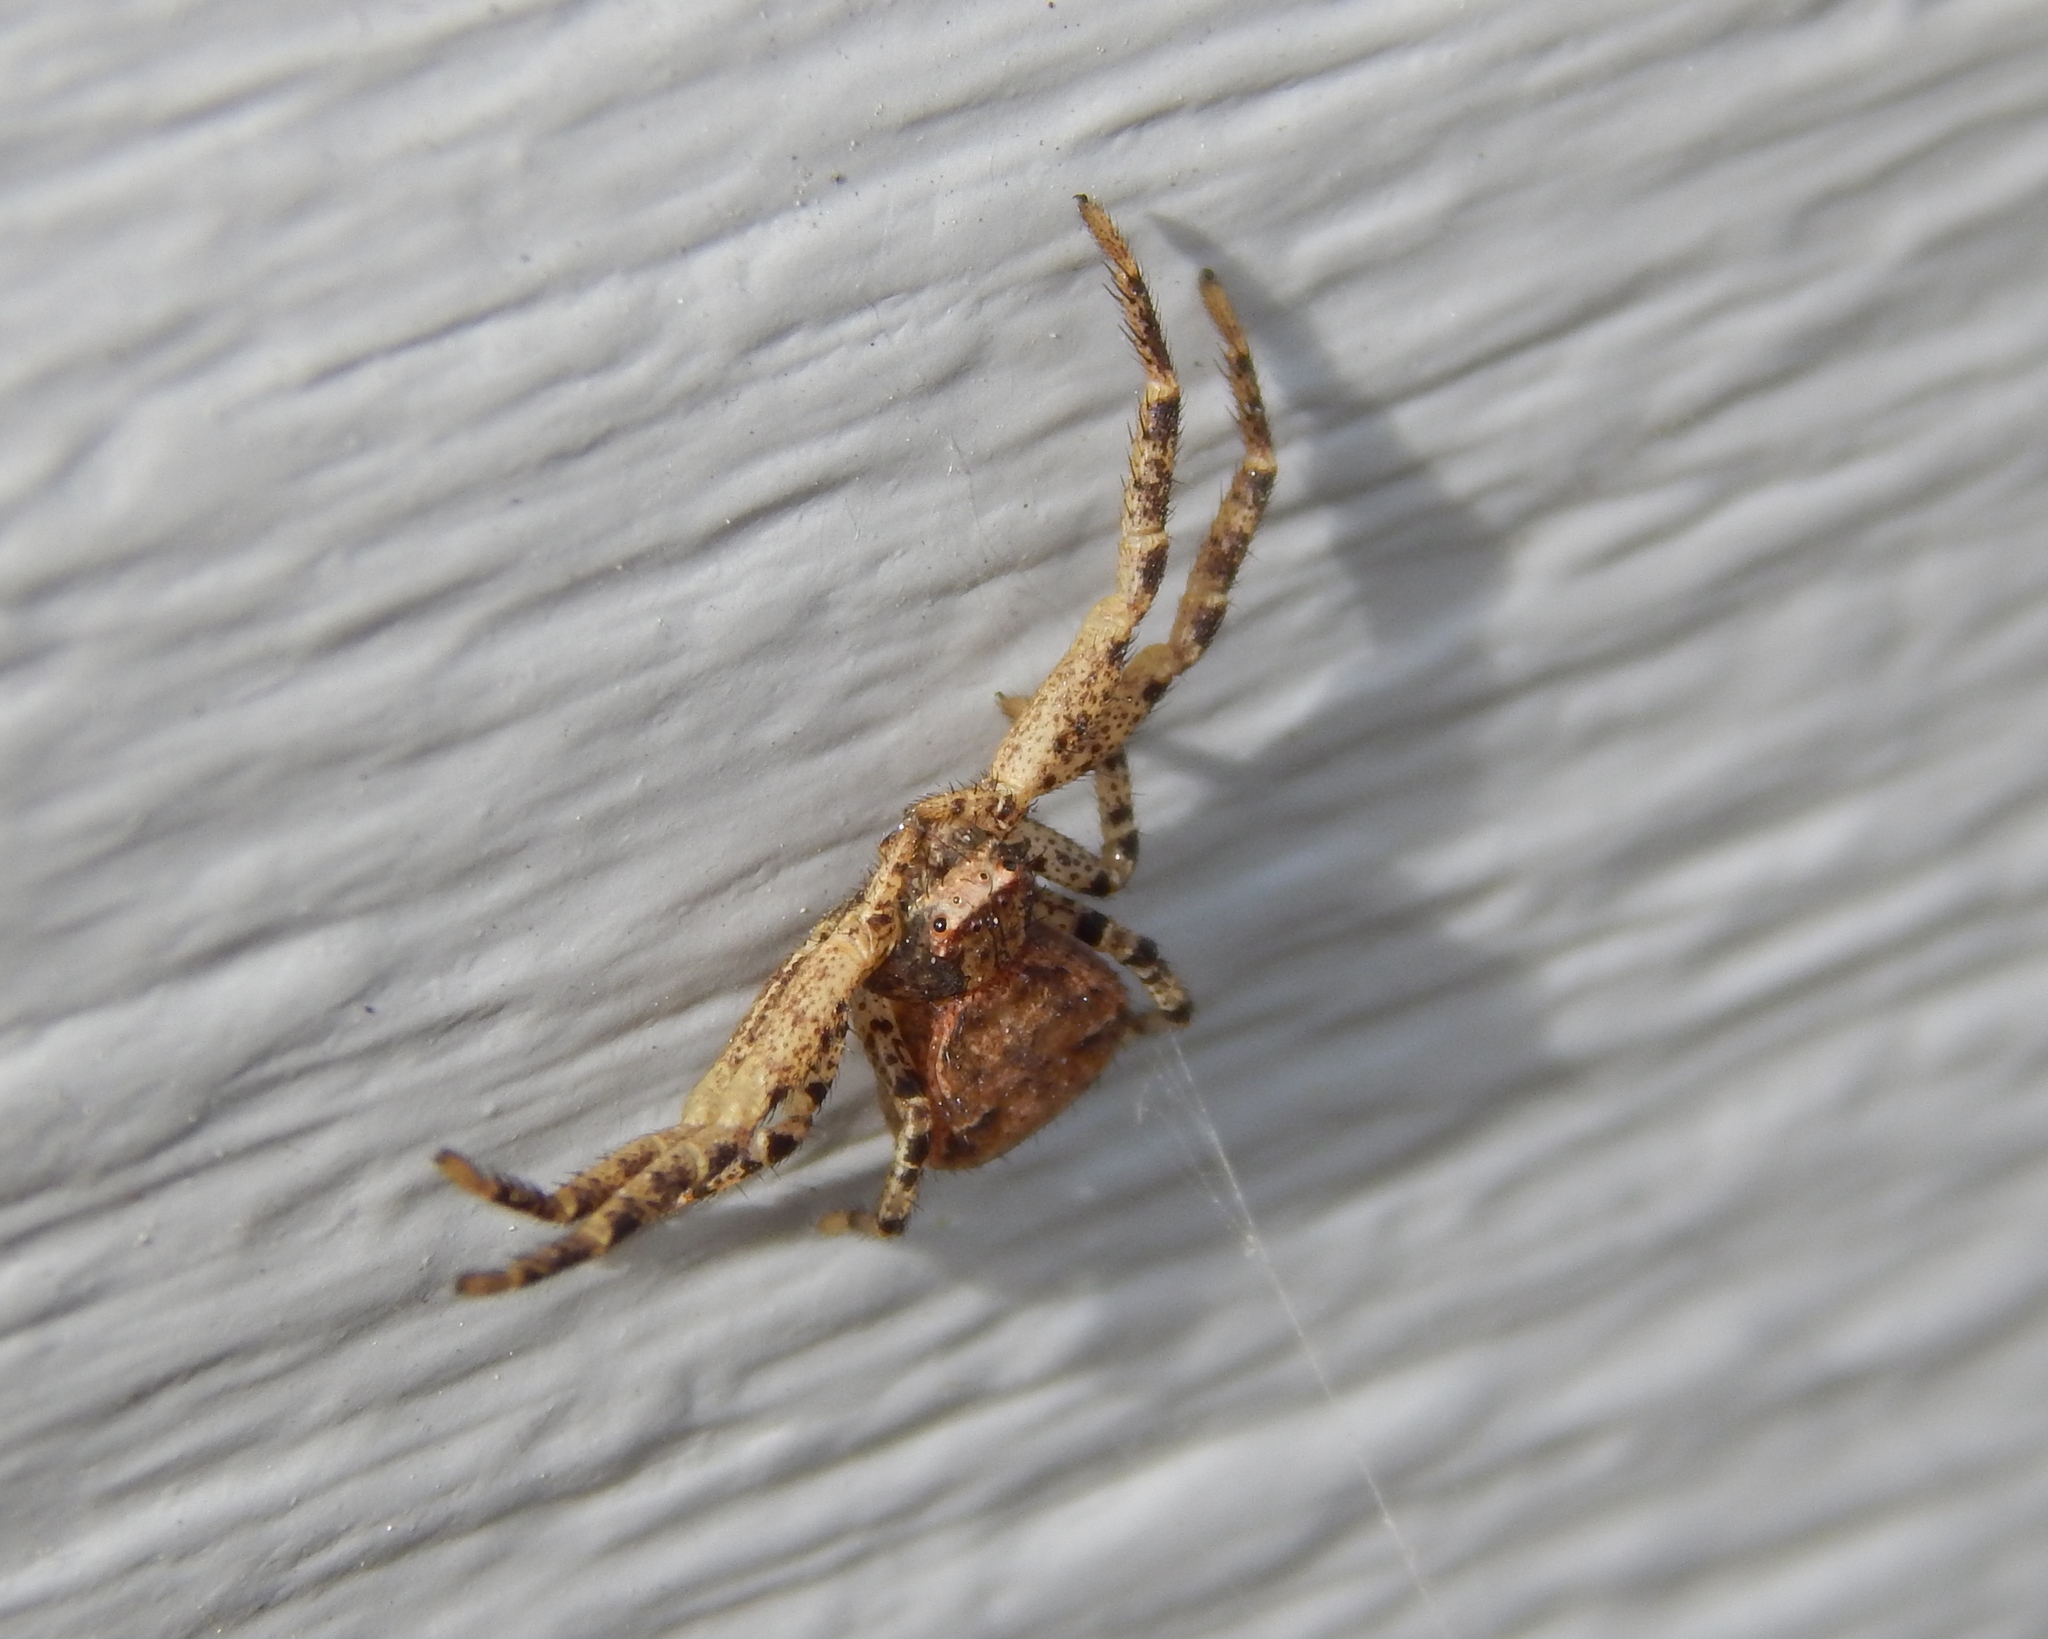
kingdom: Animalia
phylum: Arthropoda
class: Arachnida
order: Araneae
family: Thomisidae
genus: Xysticus
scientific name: Xysticus
